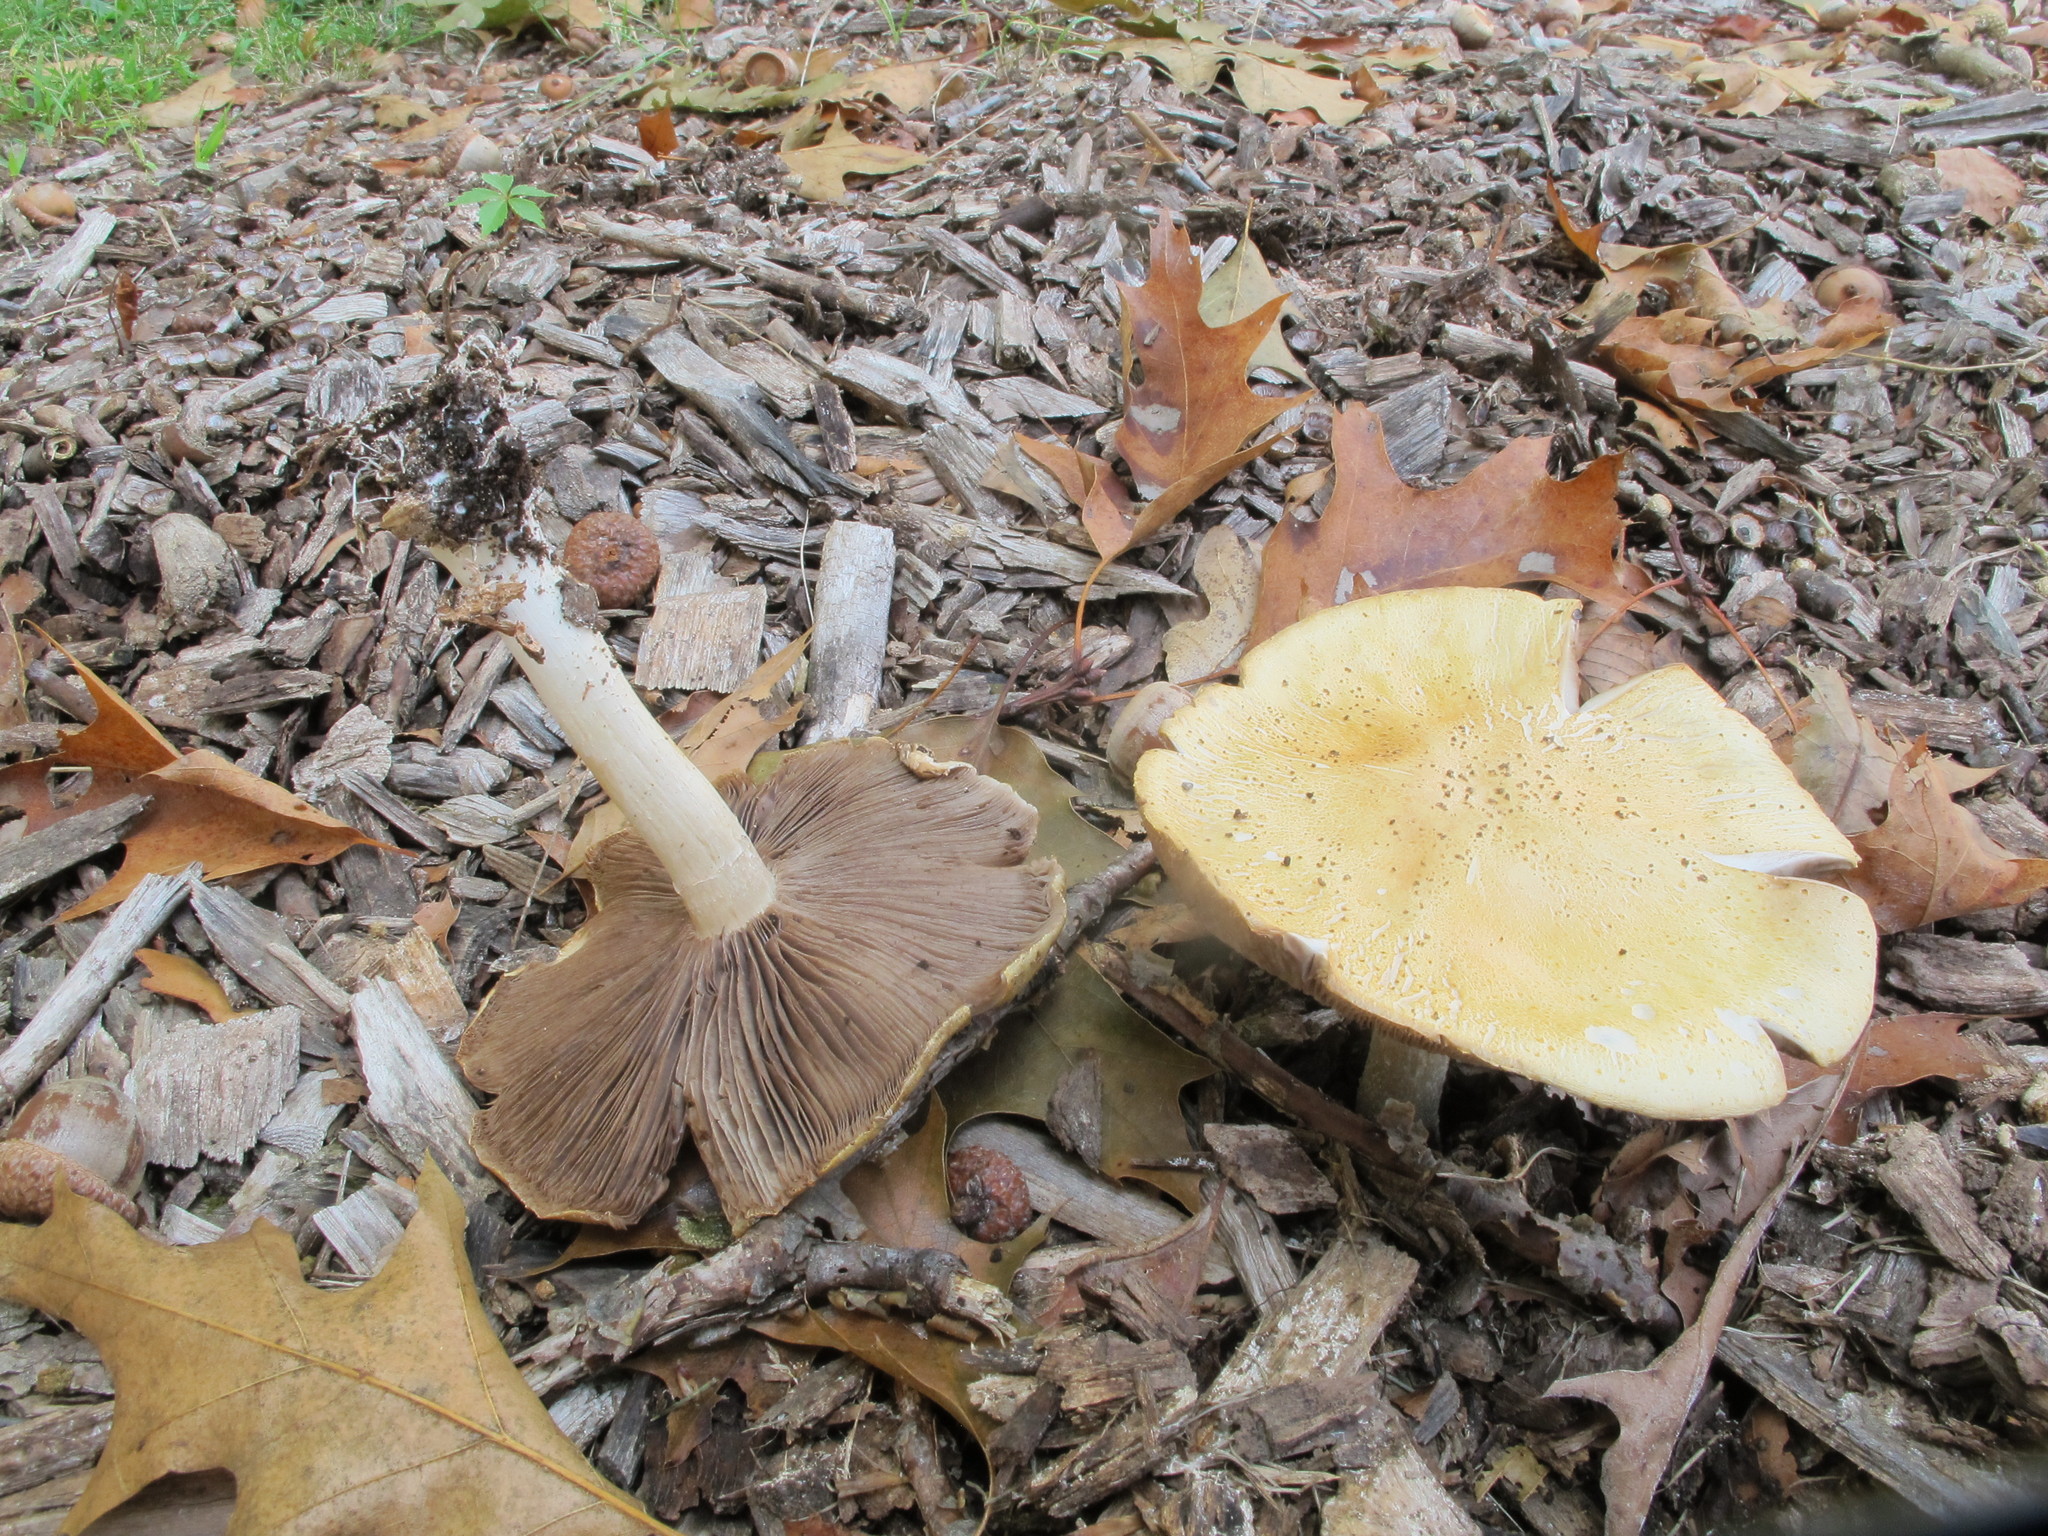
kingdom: Fungi
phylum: Basidiomycota
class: Agaricomycetes
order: Agaricales
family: Strophariaceae
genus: Stropharia
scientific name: Stropharia hardii
